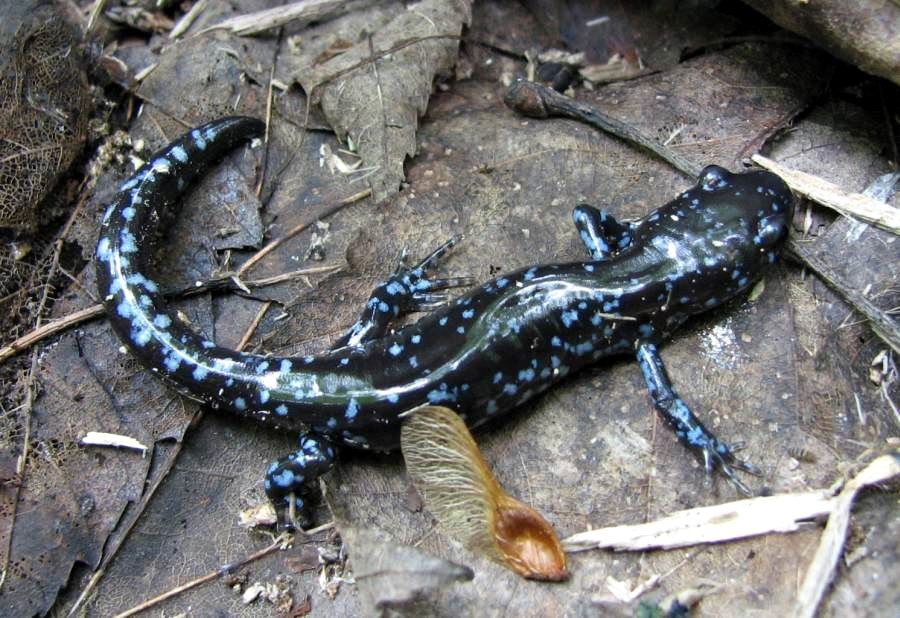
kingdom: Animalia
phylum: Chordata
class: Amphibia
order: Caudata
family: Ambystomatidae
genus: Ambystoma
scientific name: Ambystoma laterale
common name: Blue-spotted salamander
